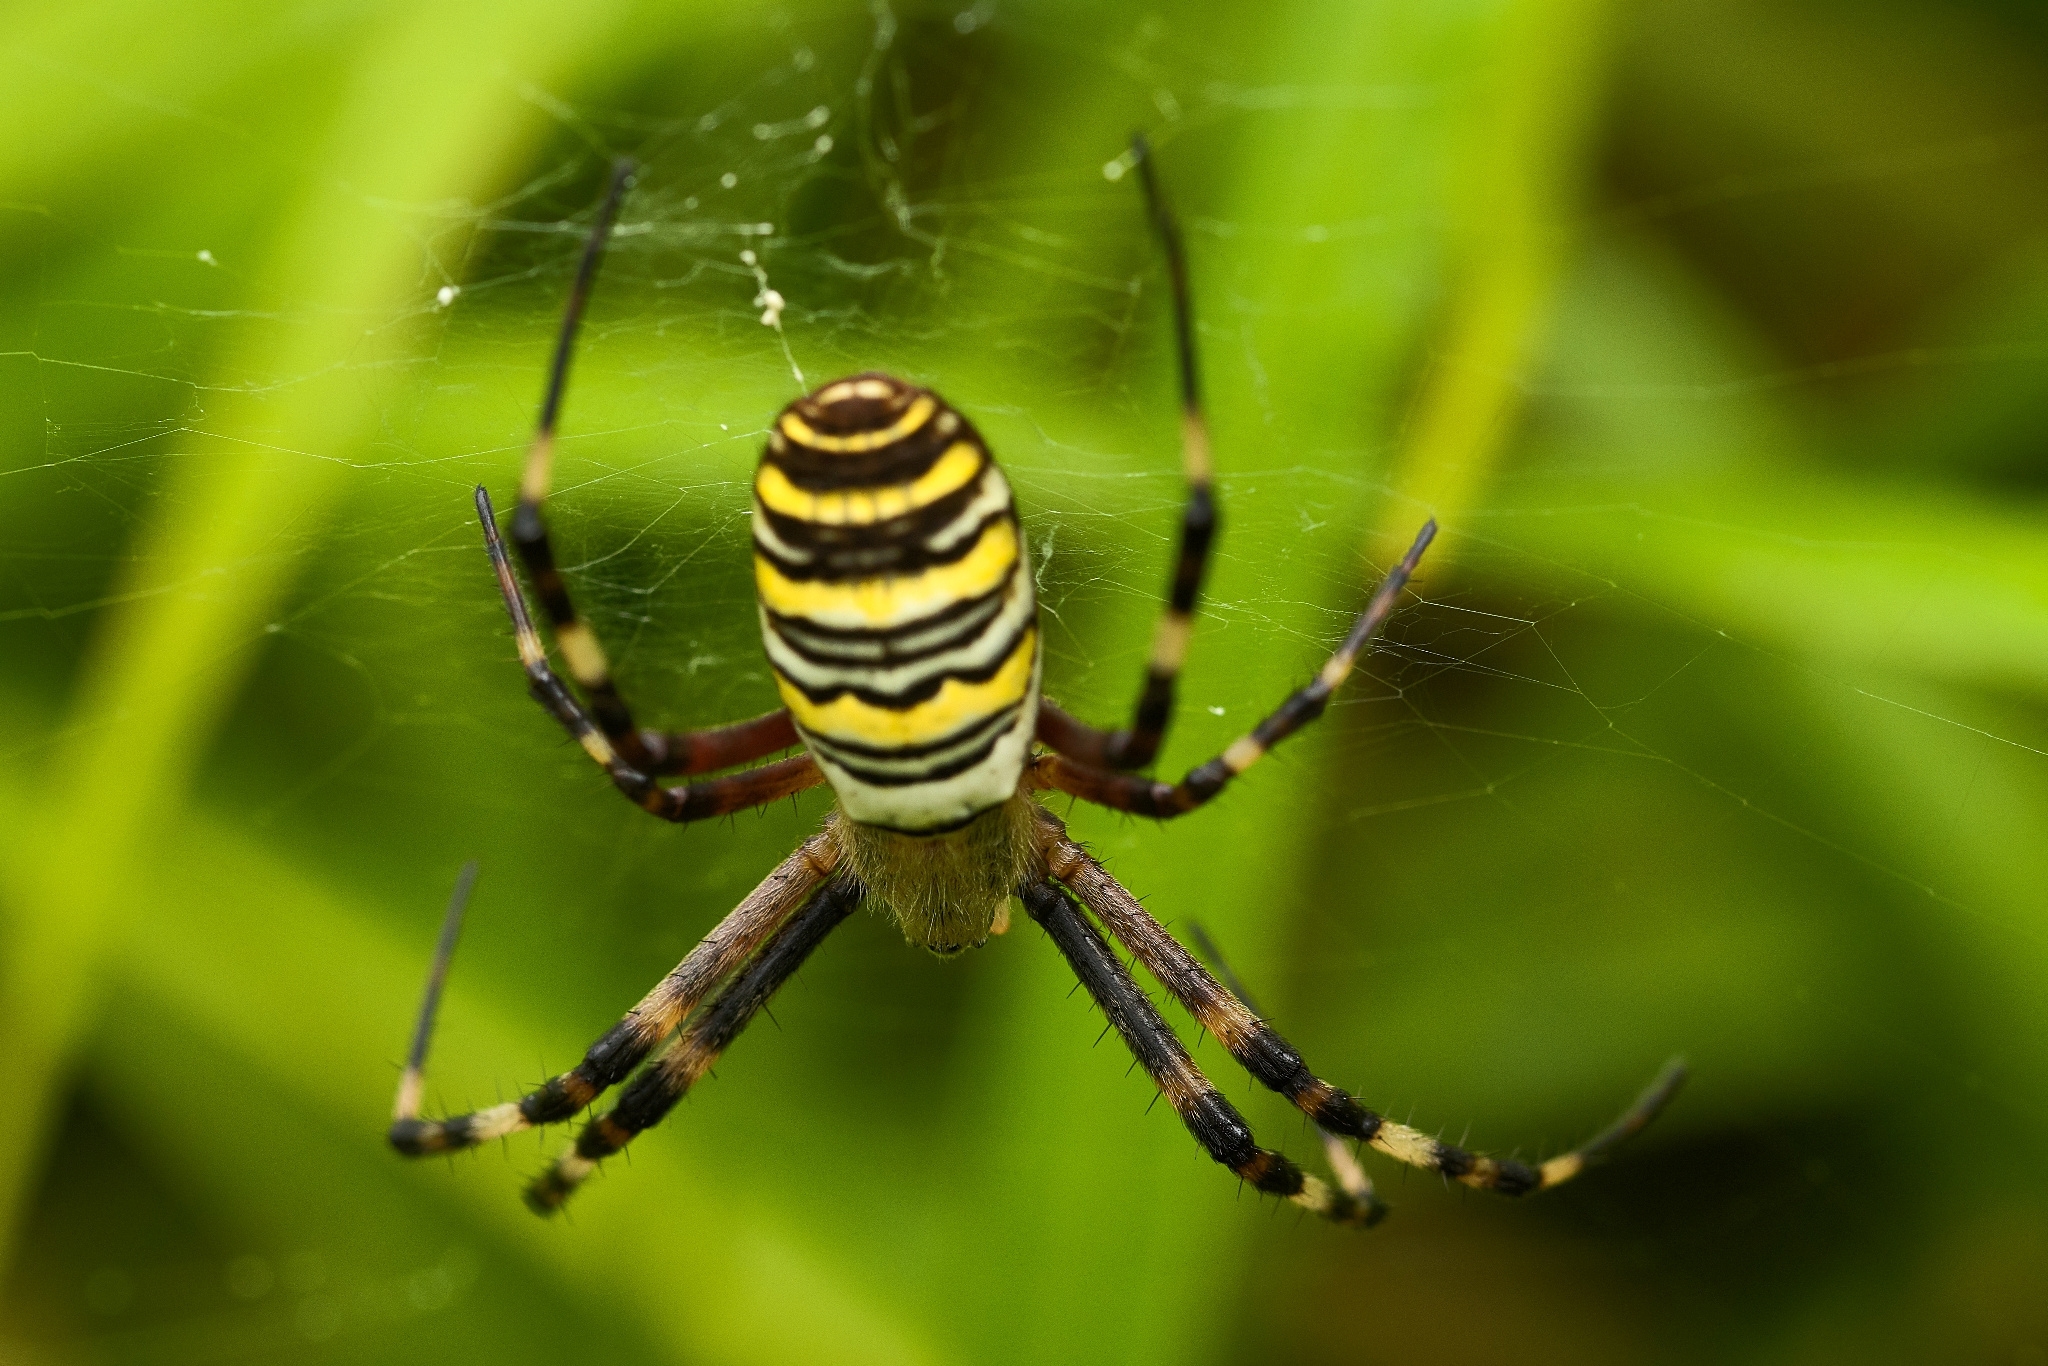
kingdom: Animalia
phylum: Arthropoda
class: Arachnida
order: Araneae
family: Araneidae
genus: Argiope
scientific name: Argiope bruennichi
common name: Wasp spider
